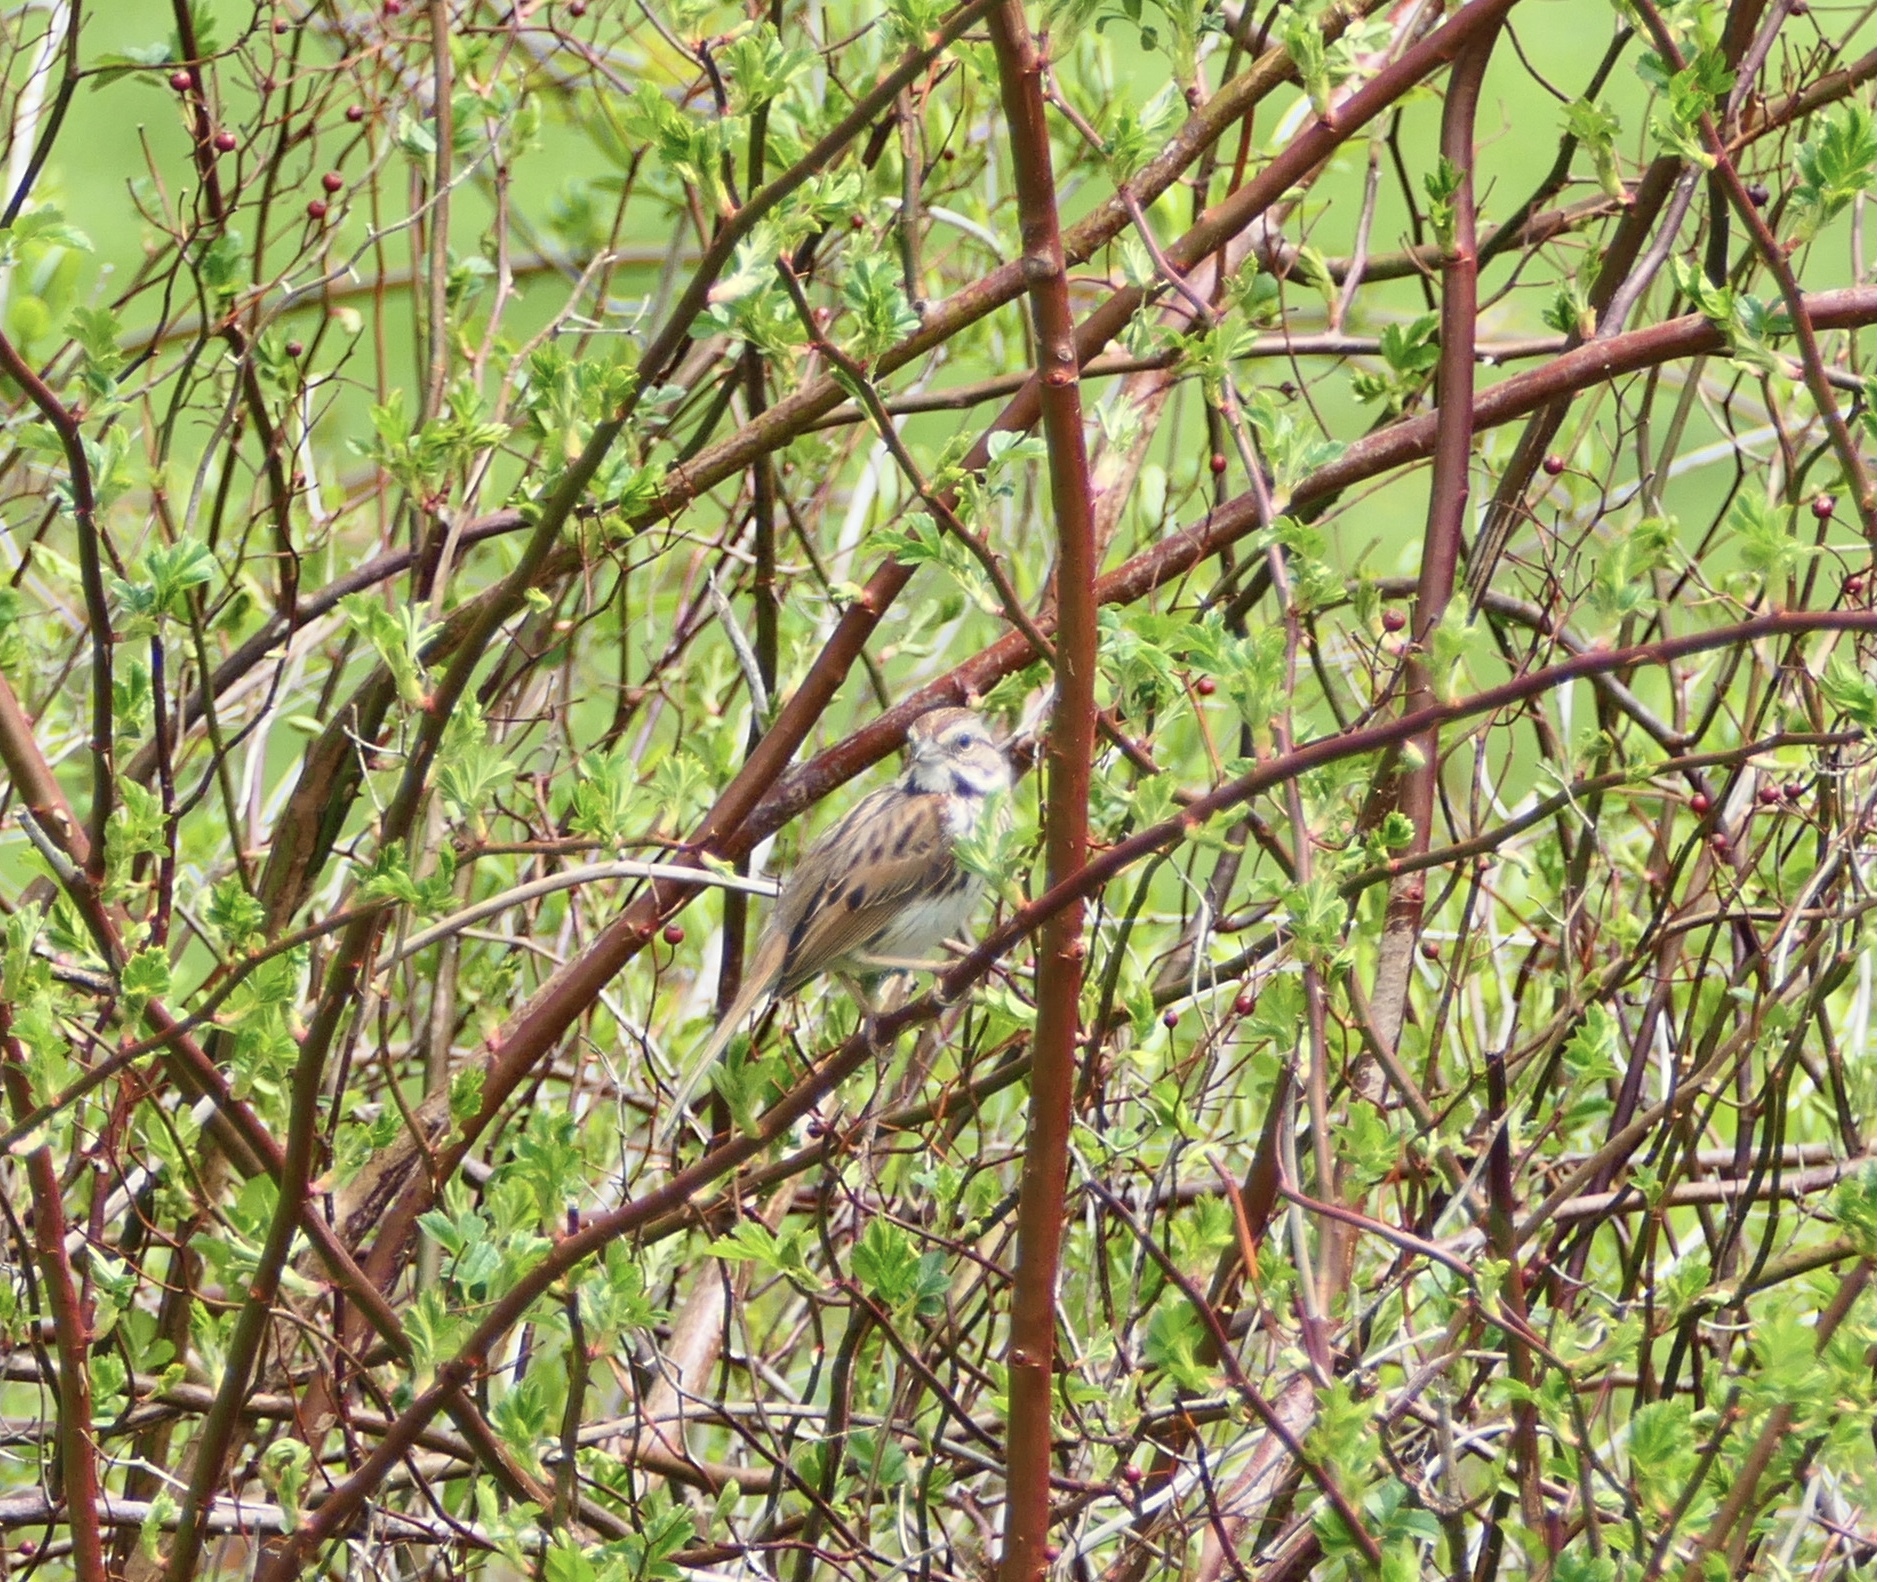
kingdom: Animalia
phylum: Chordata
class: Aves
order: Passeriformes
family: Passerellidae
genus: Melospiza
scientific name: Melospiza melodia
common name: Song sparrow
